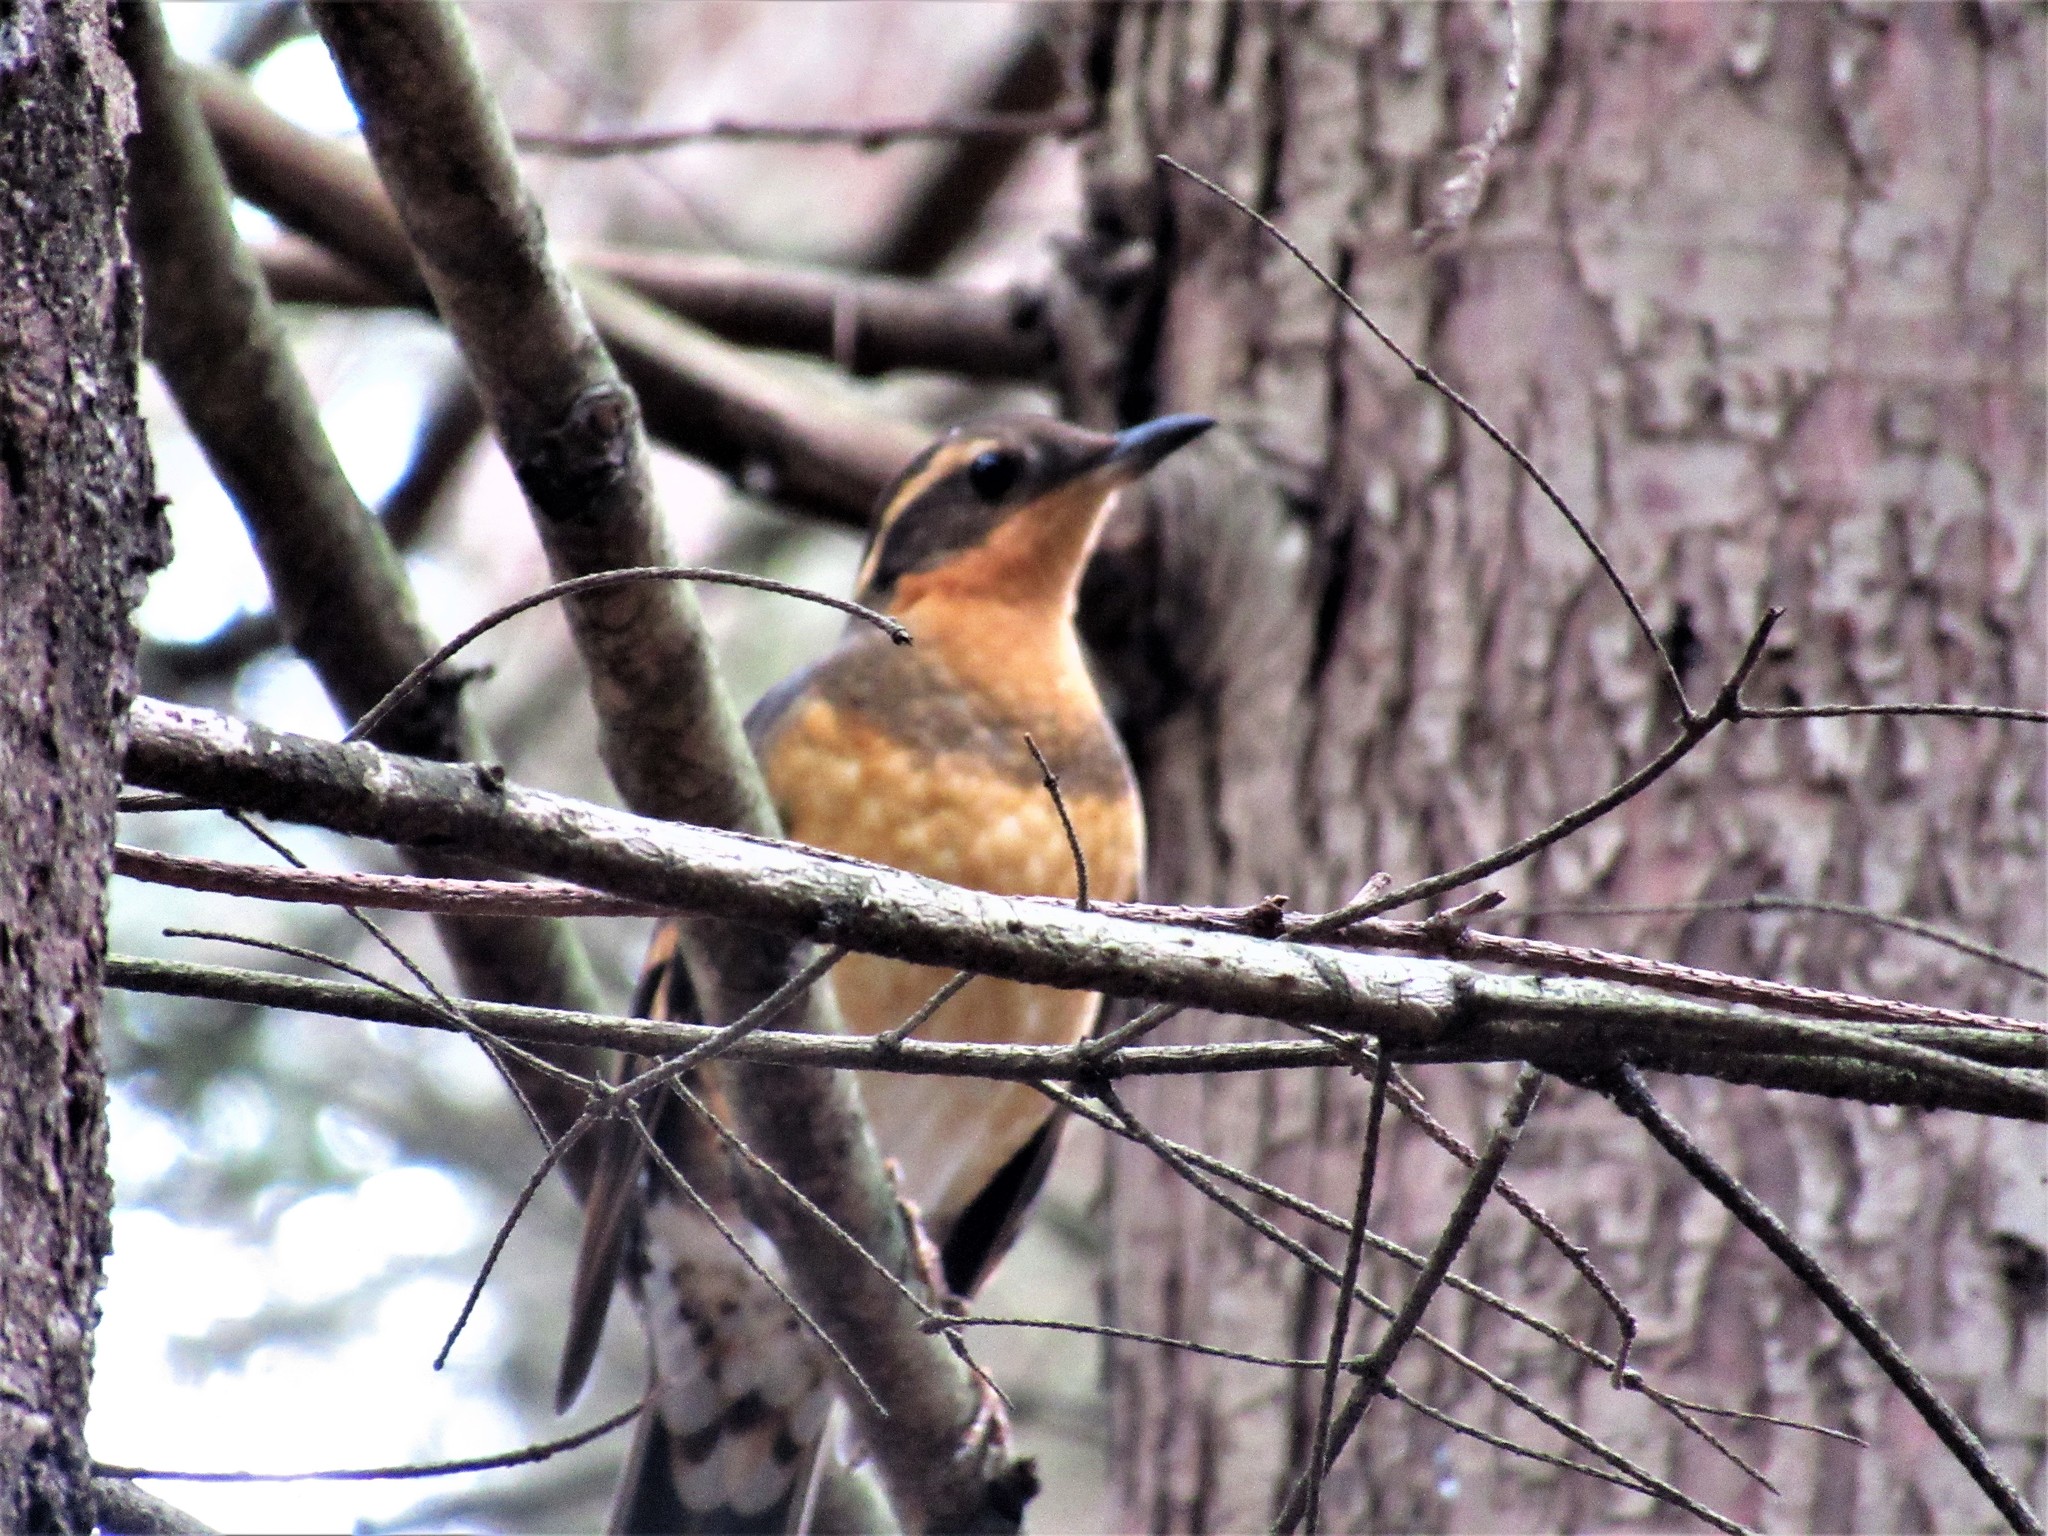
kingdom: Animalia
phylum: Chordata
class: Aves
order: Passeriformes
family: Turdidae
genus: Ixoreus
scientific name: Ixoreus naevius
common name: Varied thrush
